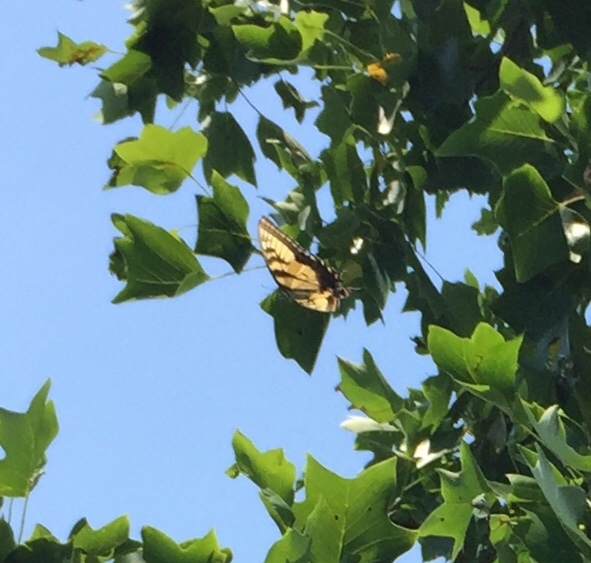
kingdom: Animalia
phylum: Arthropoda
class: Insecta
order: Lepidoptera
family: Papilionidae
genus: Papilio
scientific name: Papilio glaucus
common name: Tiger swallowtail
